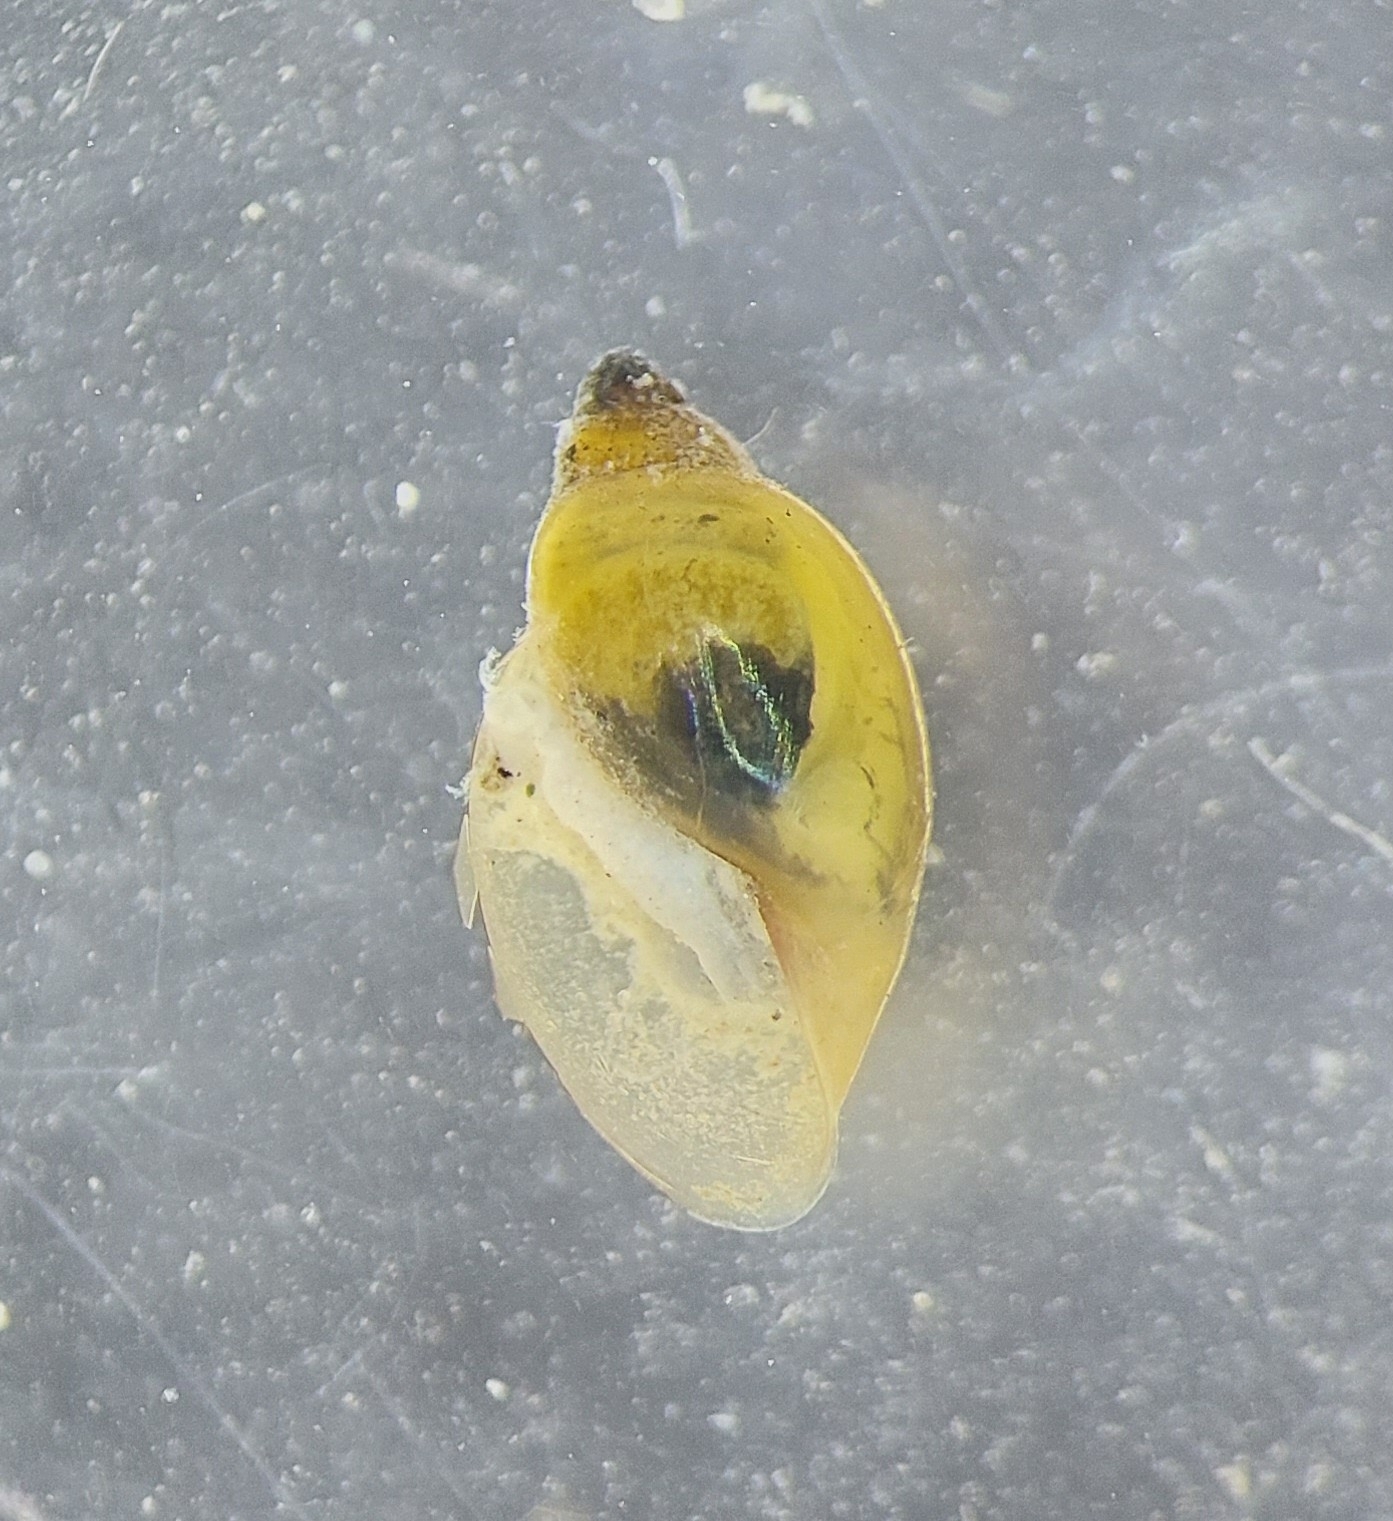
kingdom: Animalia
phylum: Mollusca
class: Gastropoda
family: Physidae
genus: Physella
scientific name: Physella acuta
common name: European physa
